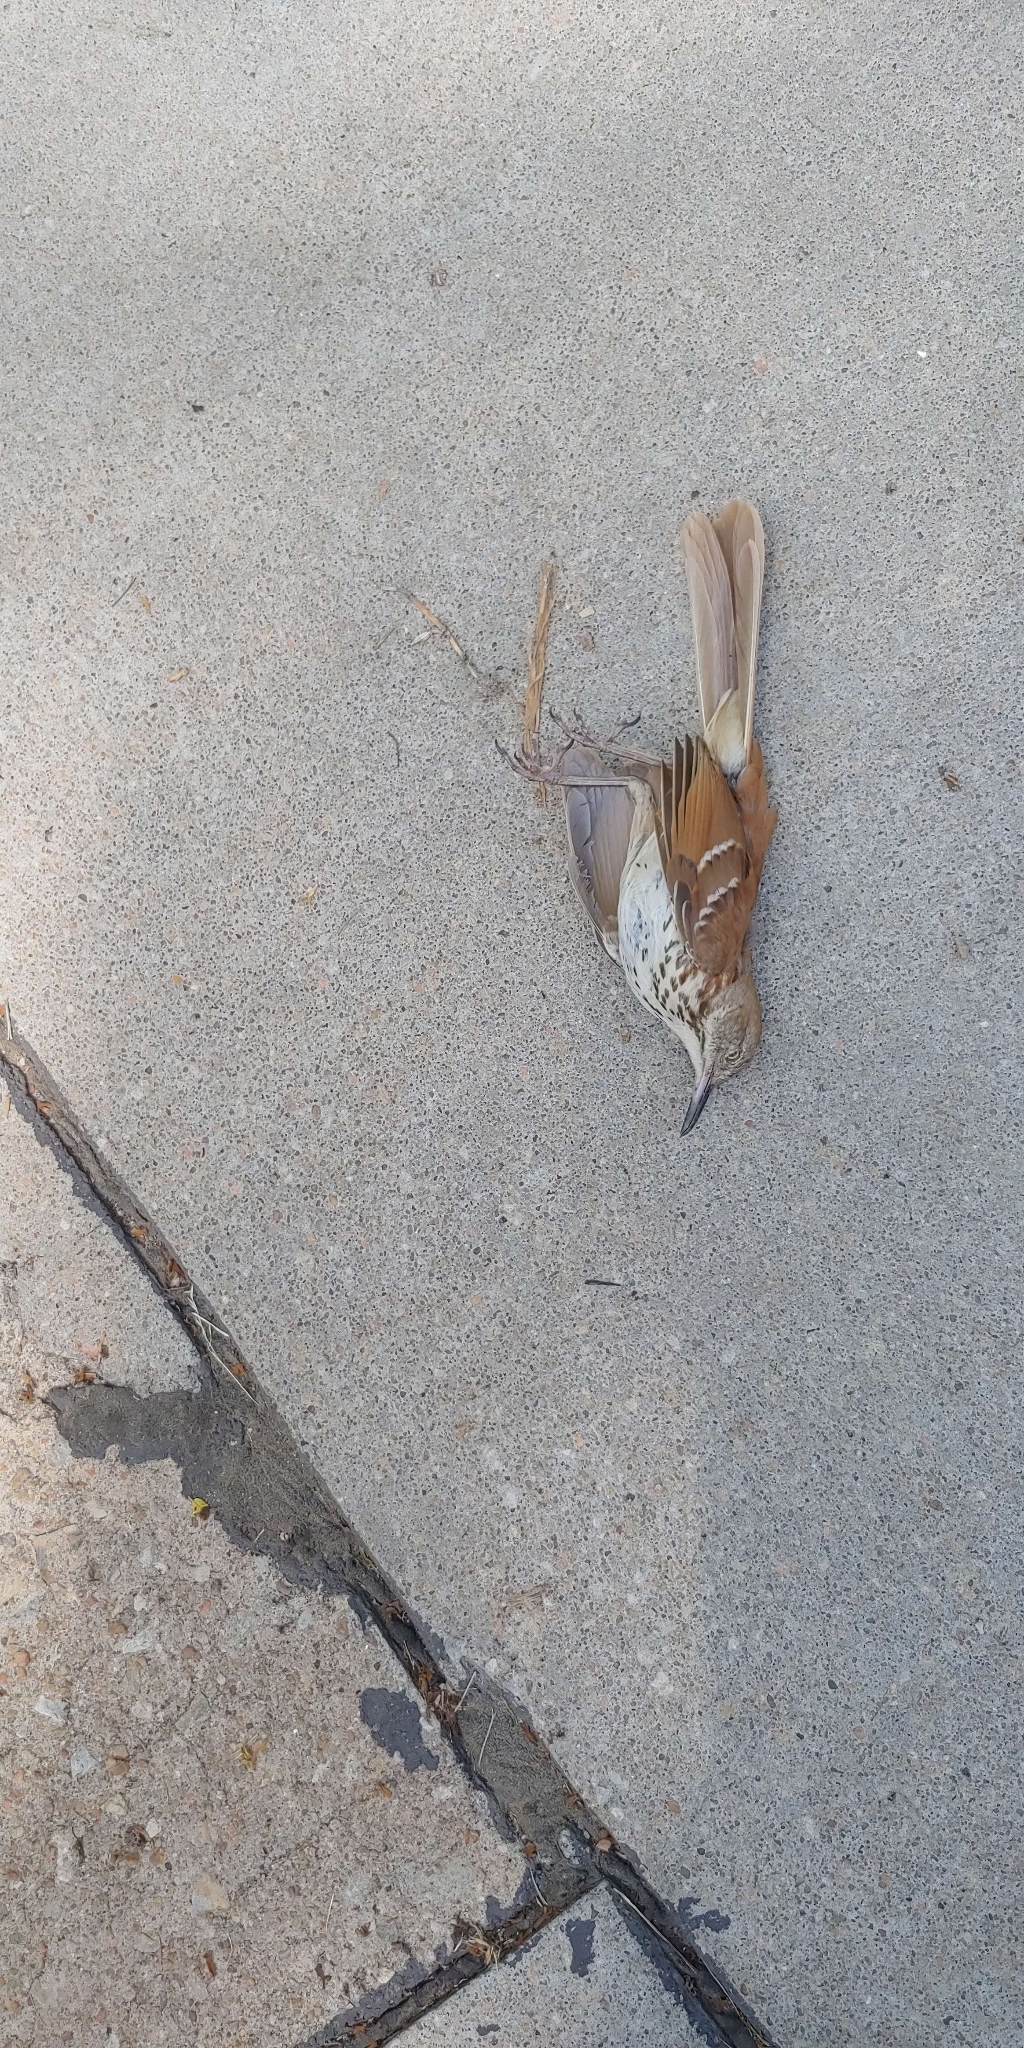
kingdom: Animalia
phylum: Chordata
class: Aves
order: Passeriformes
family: Mimidae
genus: Toxostoma
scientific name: Toxostoma rufum
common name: Brown thrasher
